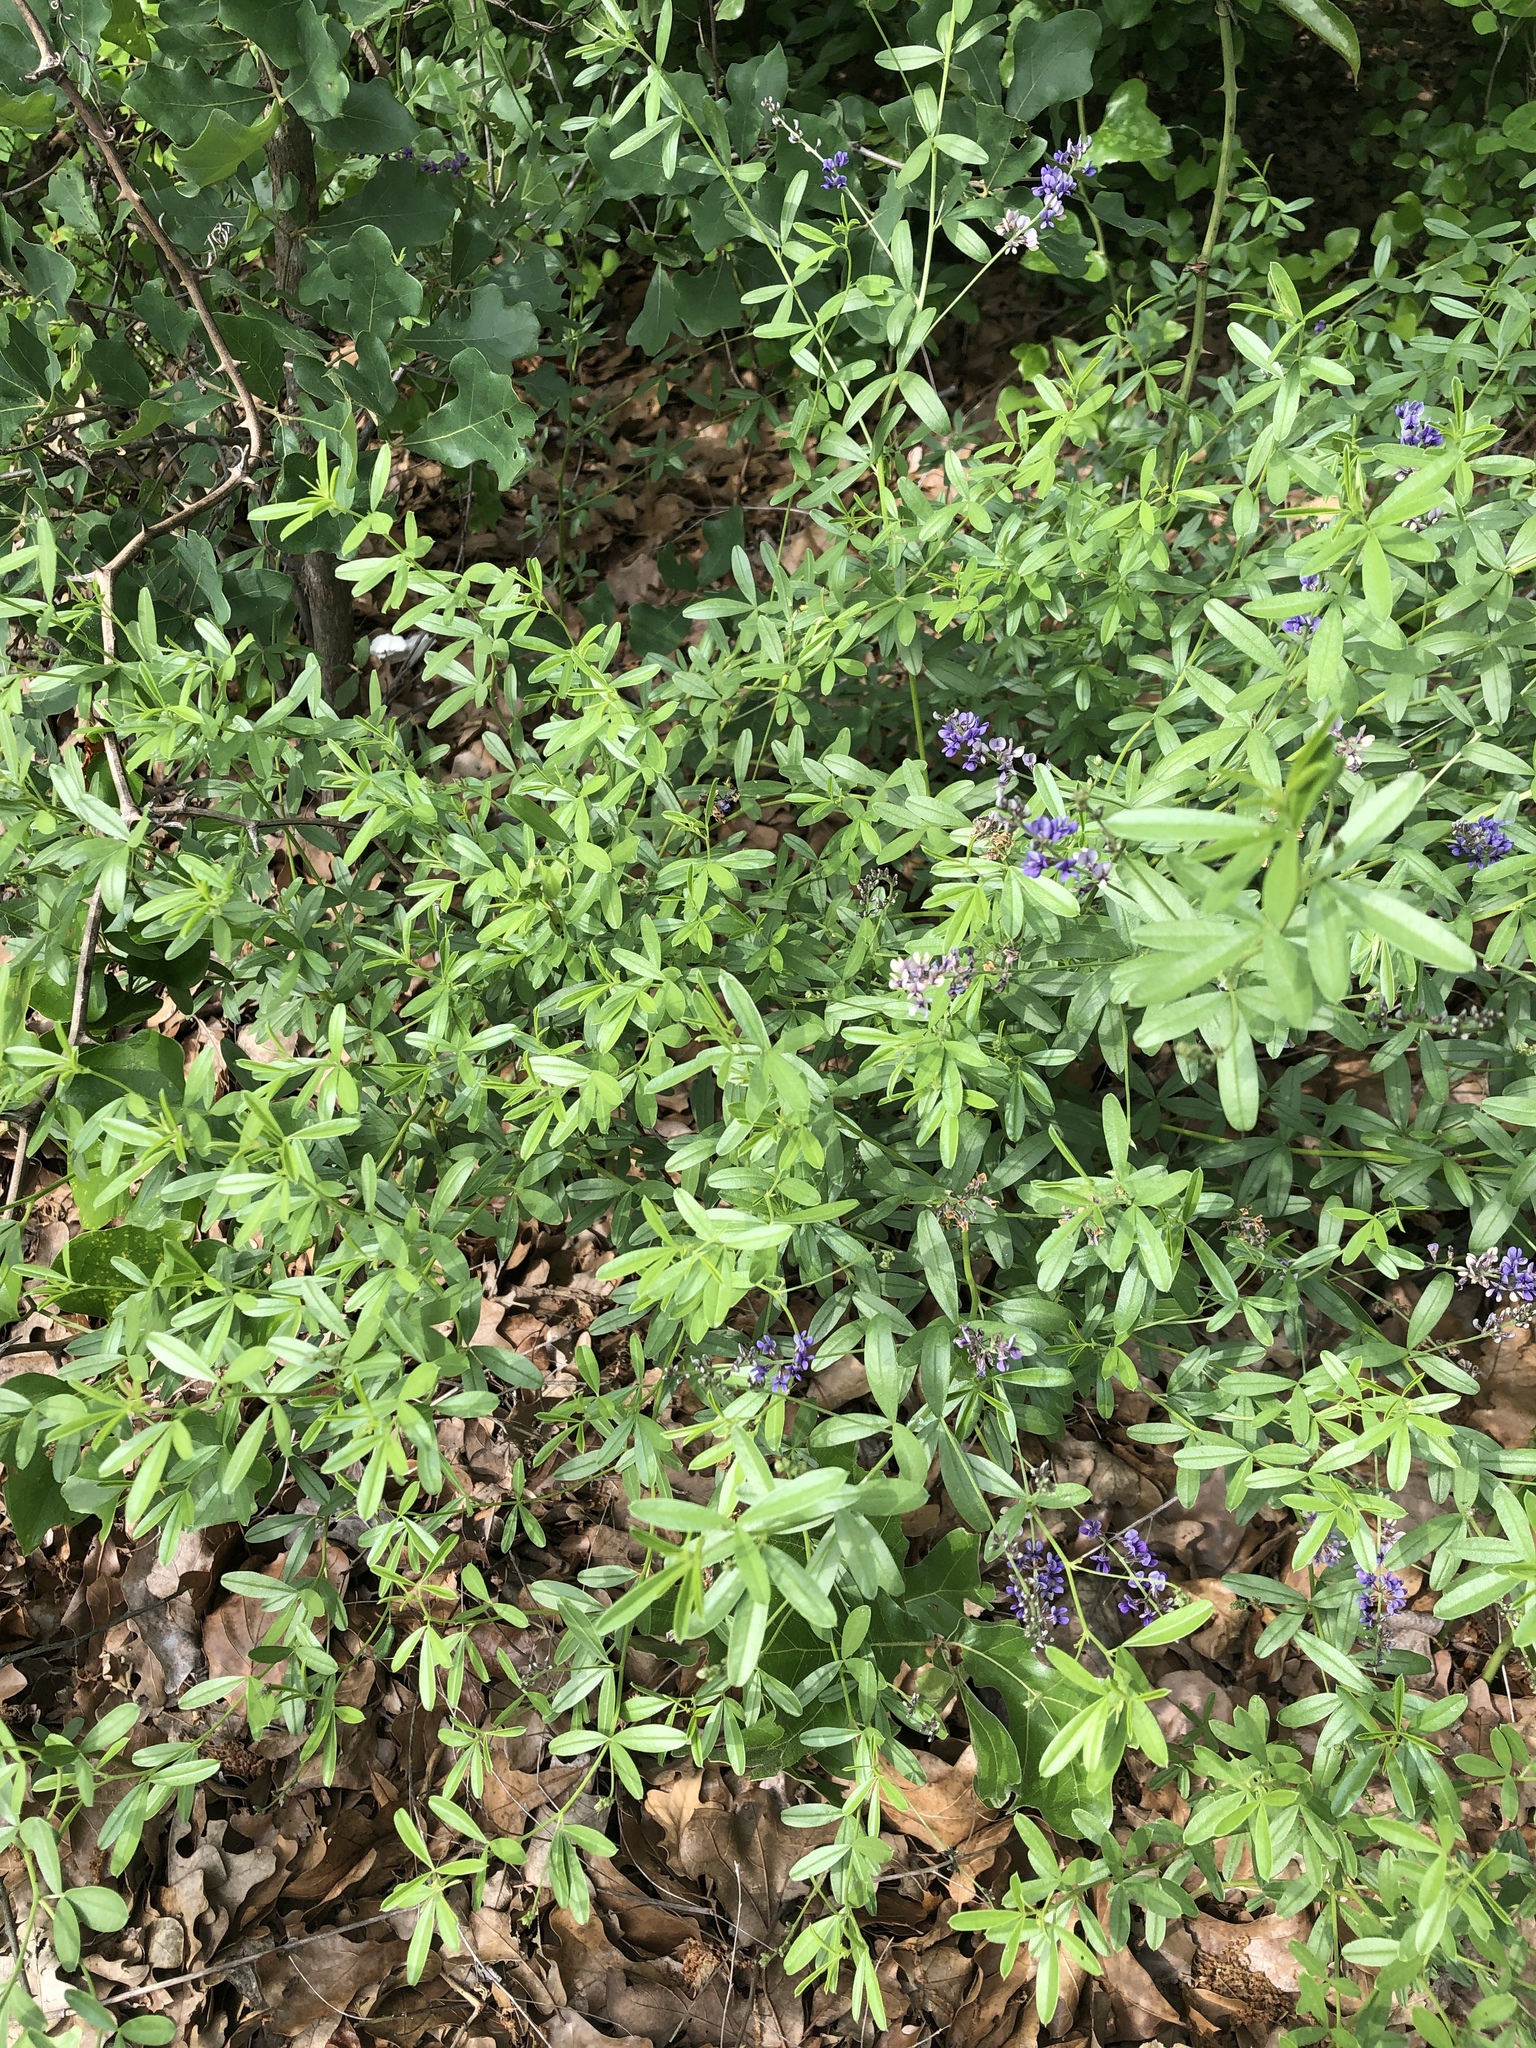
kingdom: Plantae
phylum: Tracheophyta
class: Magnoliopsida
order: Fabales
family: Fabaceae
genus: Pediomelum
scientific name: Pediomelum tenuiflorum
